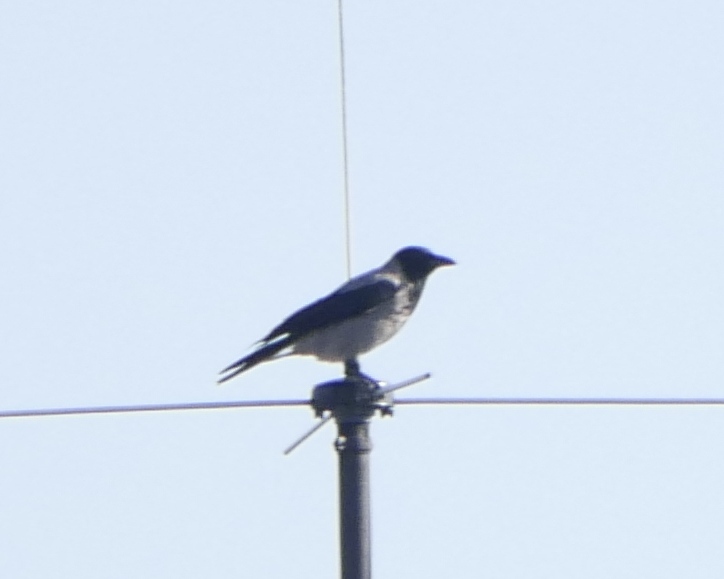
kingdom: Animalia
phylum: Chordata
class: Aves
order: Passeriformes
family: Corvidae
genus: Corvus
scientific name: Corvus cornix
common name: Hooded crow
